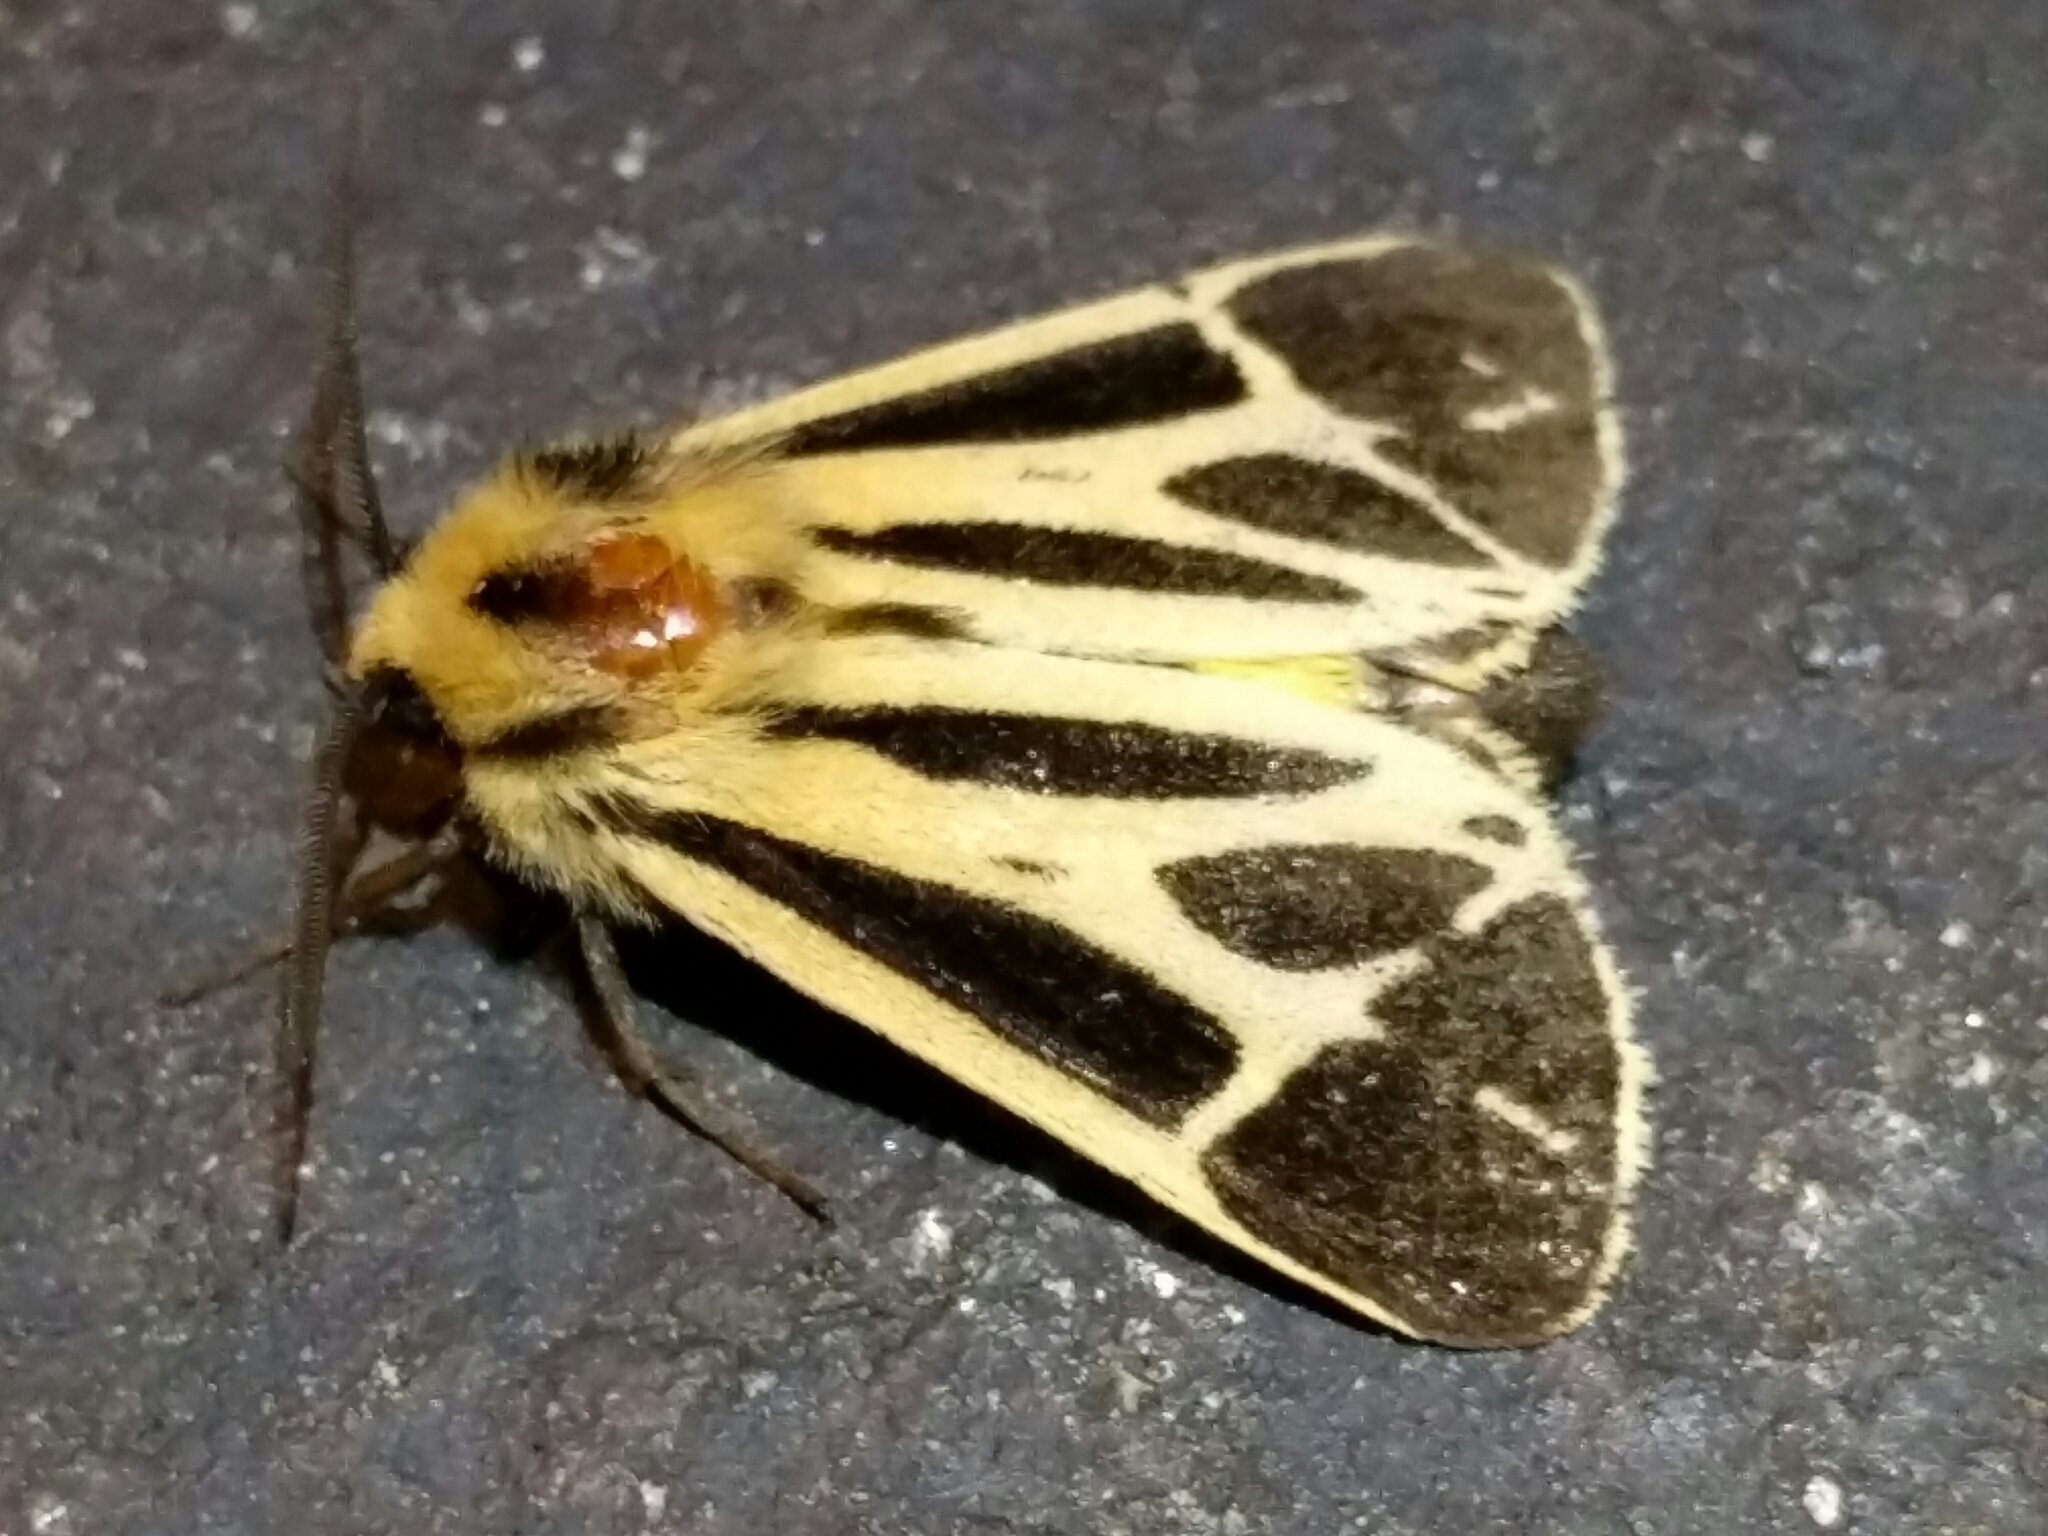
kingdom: Animalia
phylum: Arthropoda
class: Insecta
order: Lepidoptera
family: Erebidae
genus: Apantesis
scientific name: Apantesis
